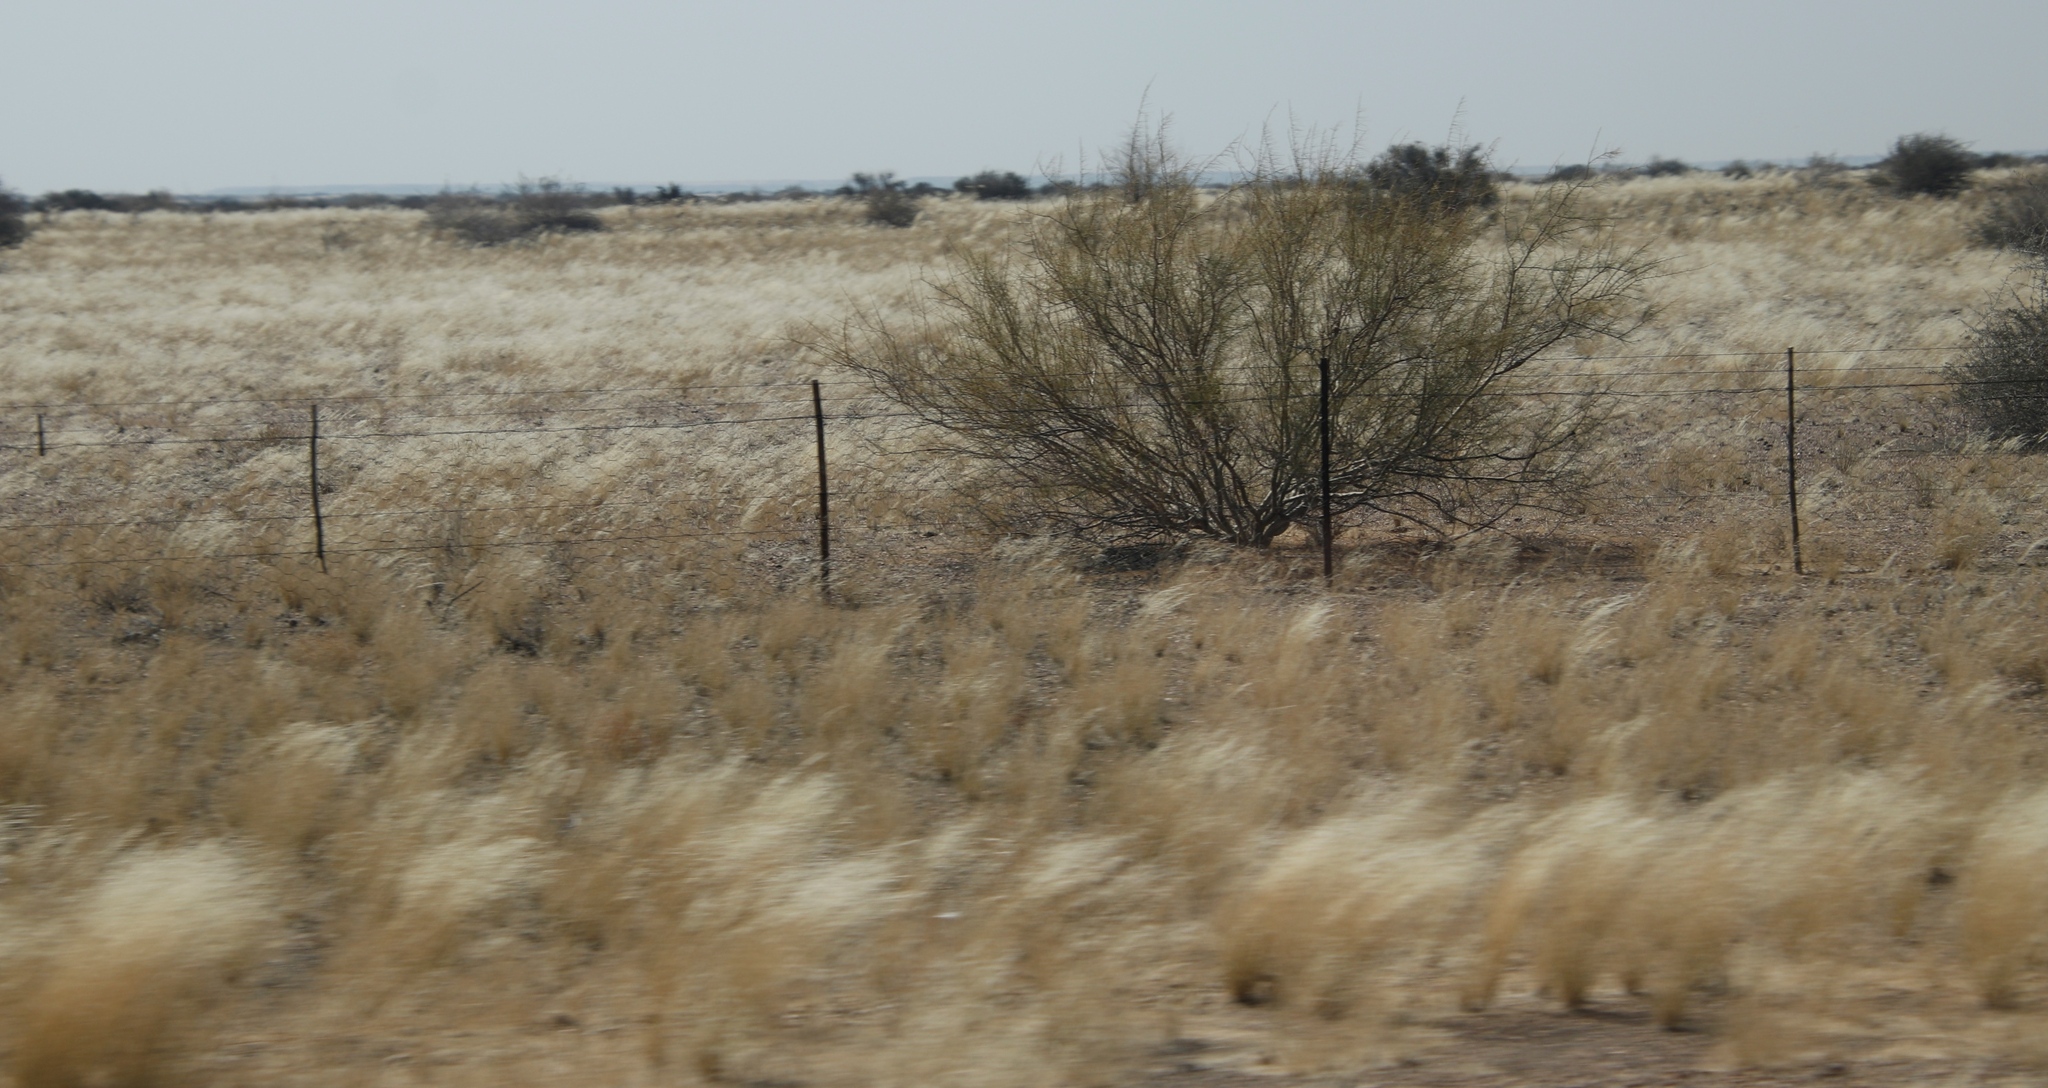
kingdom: Plantae
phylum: Tracheophyta
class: Magnoliopsida
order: Fabales
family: Fabaceae
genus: Parkinsonia
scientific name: Parkinsonia africana
